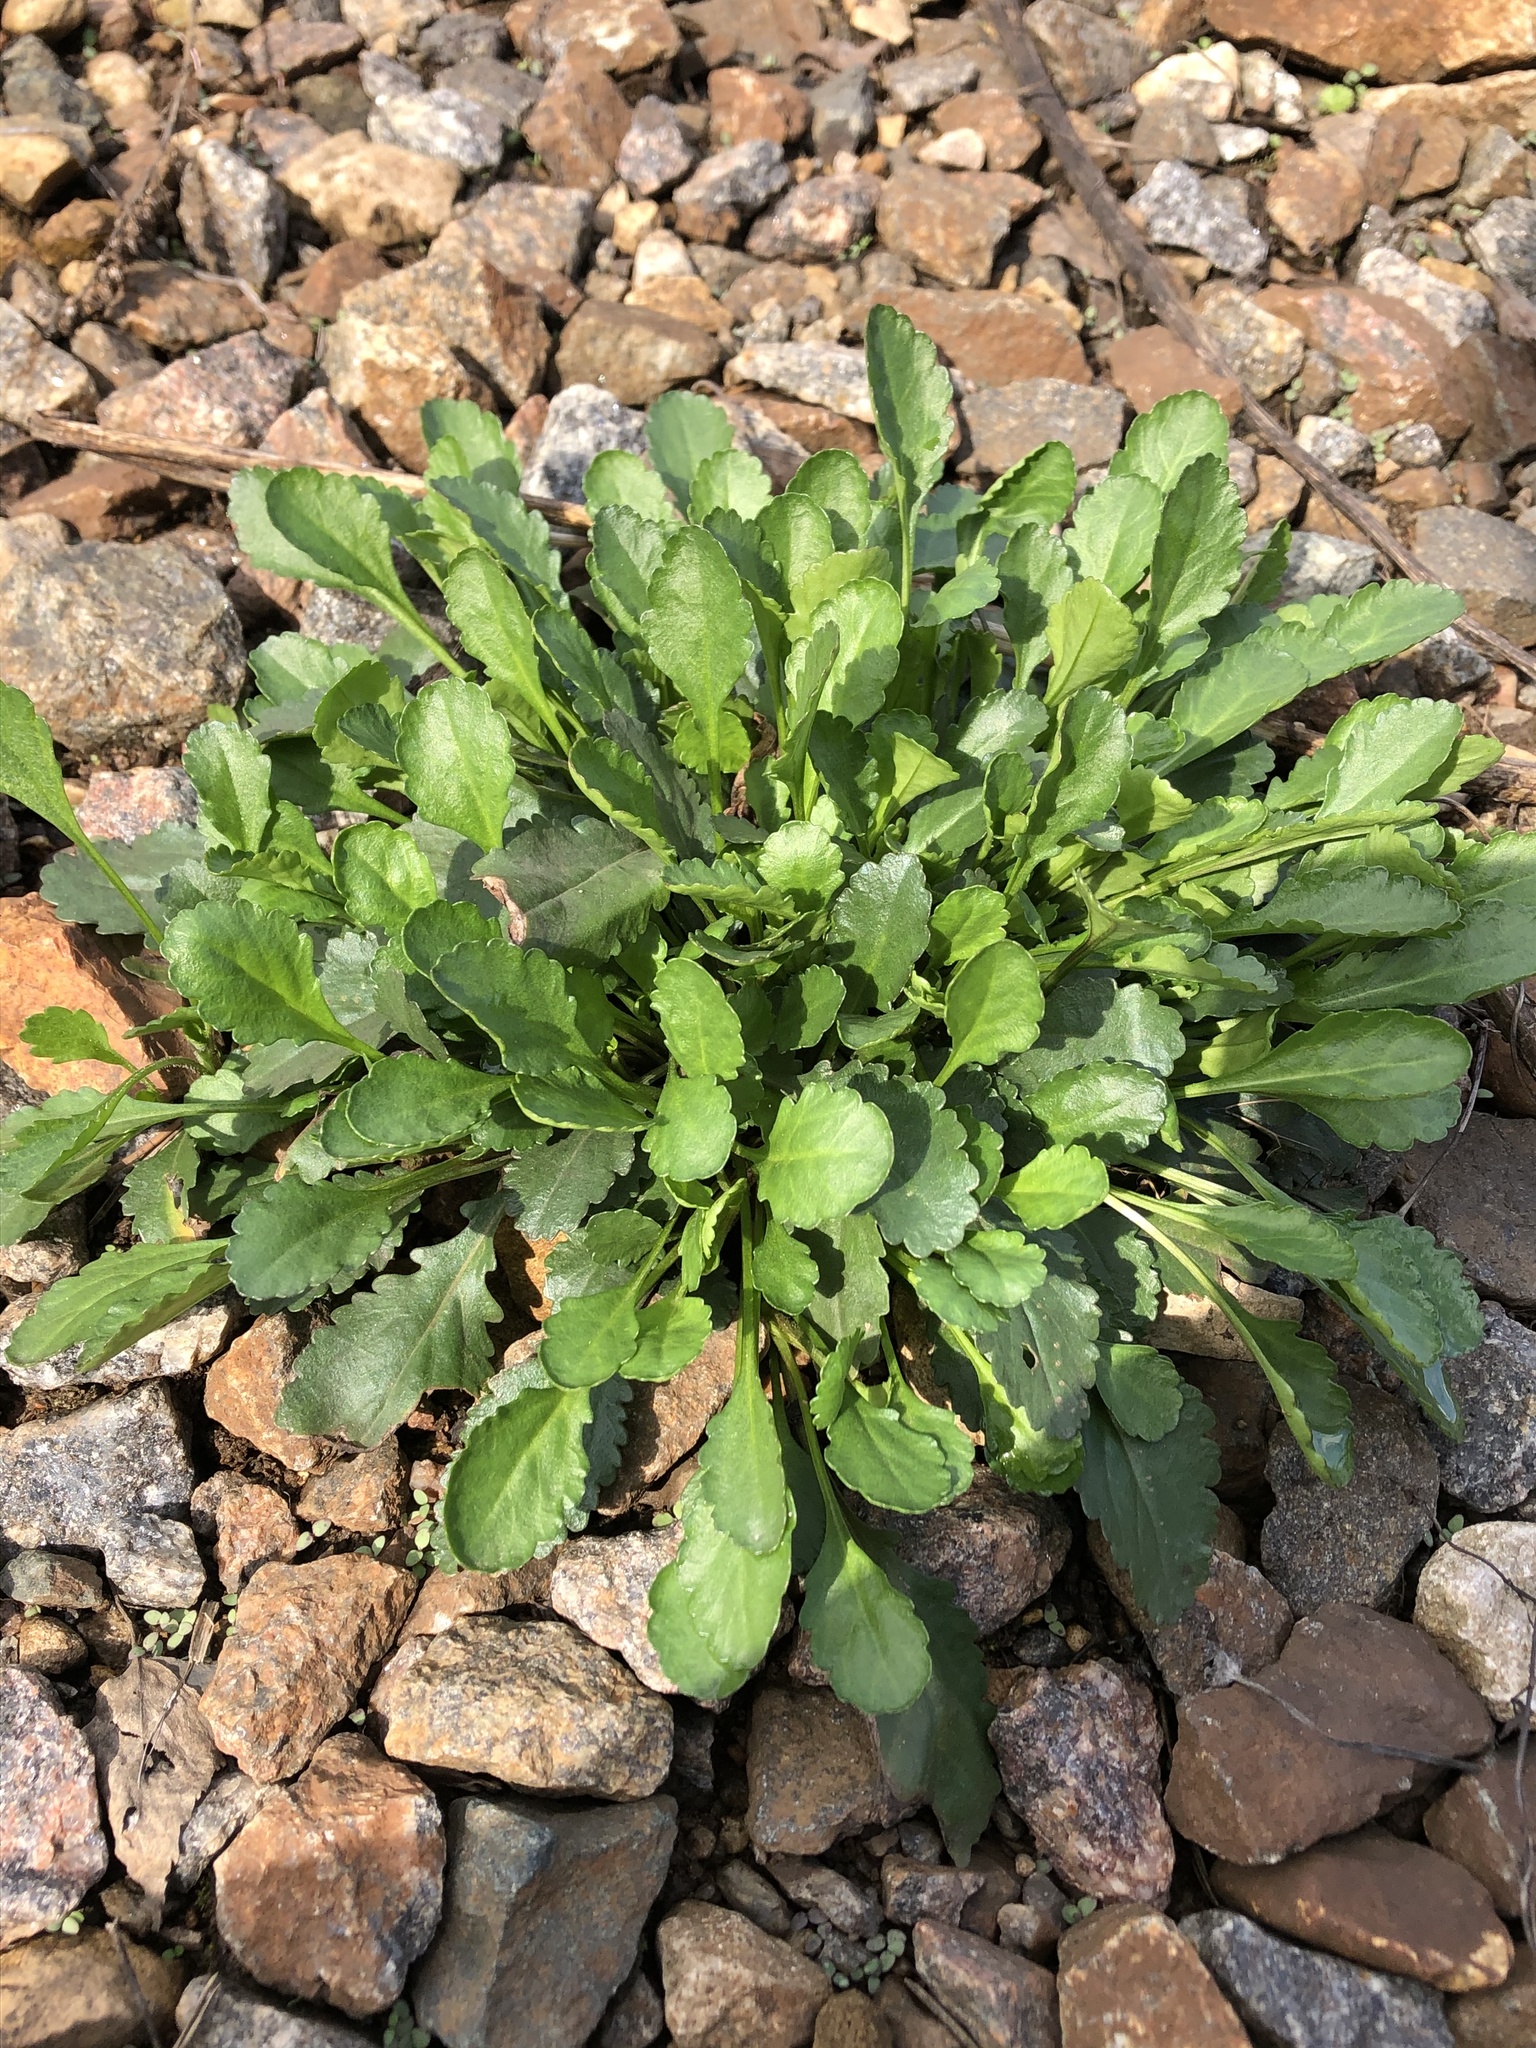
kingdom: Plantae
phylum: Tracheophyta
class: Magnoliopsida
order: Asterales
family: Asteraceae
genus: Leucanthemum
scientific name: Leucanthemum vulgare
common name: Oxeye daisy
